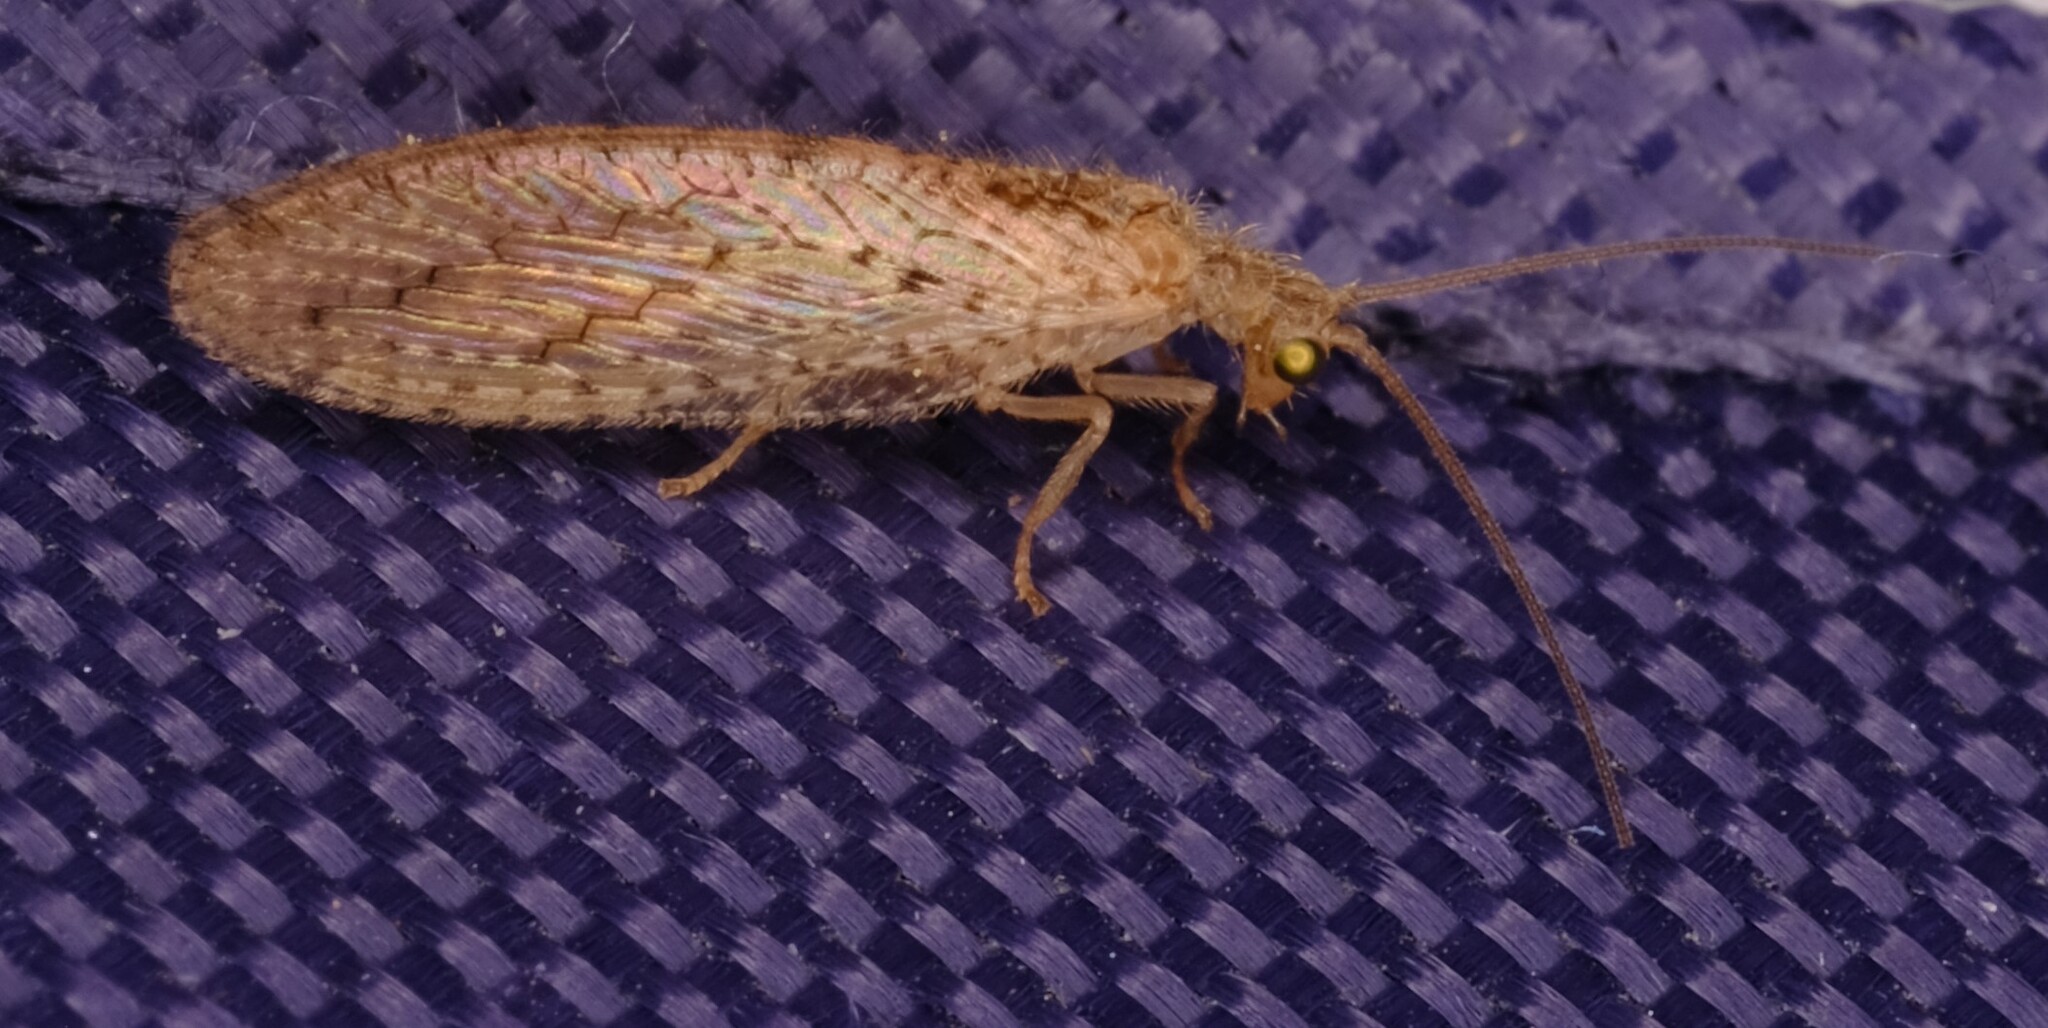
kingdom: Animalia
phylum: Arthropoda
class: Insecta
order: Neuroptera
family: Hemerobiidae
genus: Micromus
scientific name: Micromus tasmaniae
